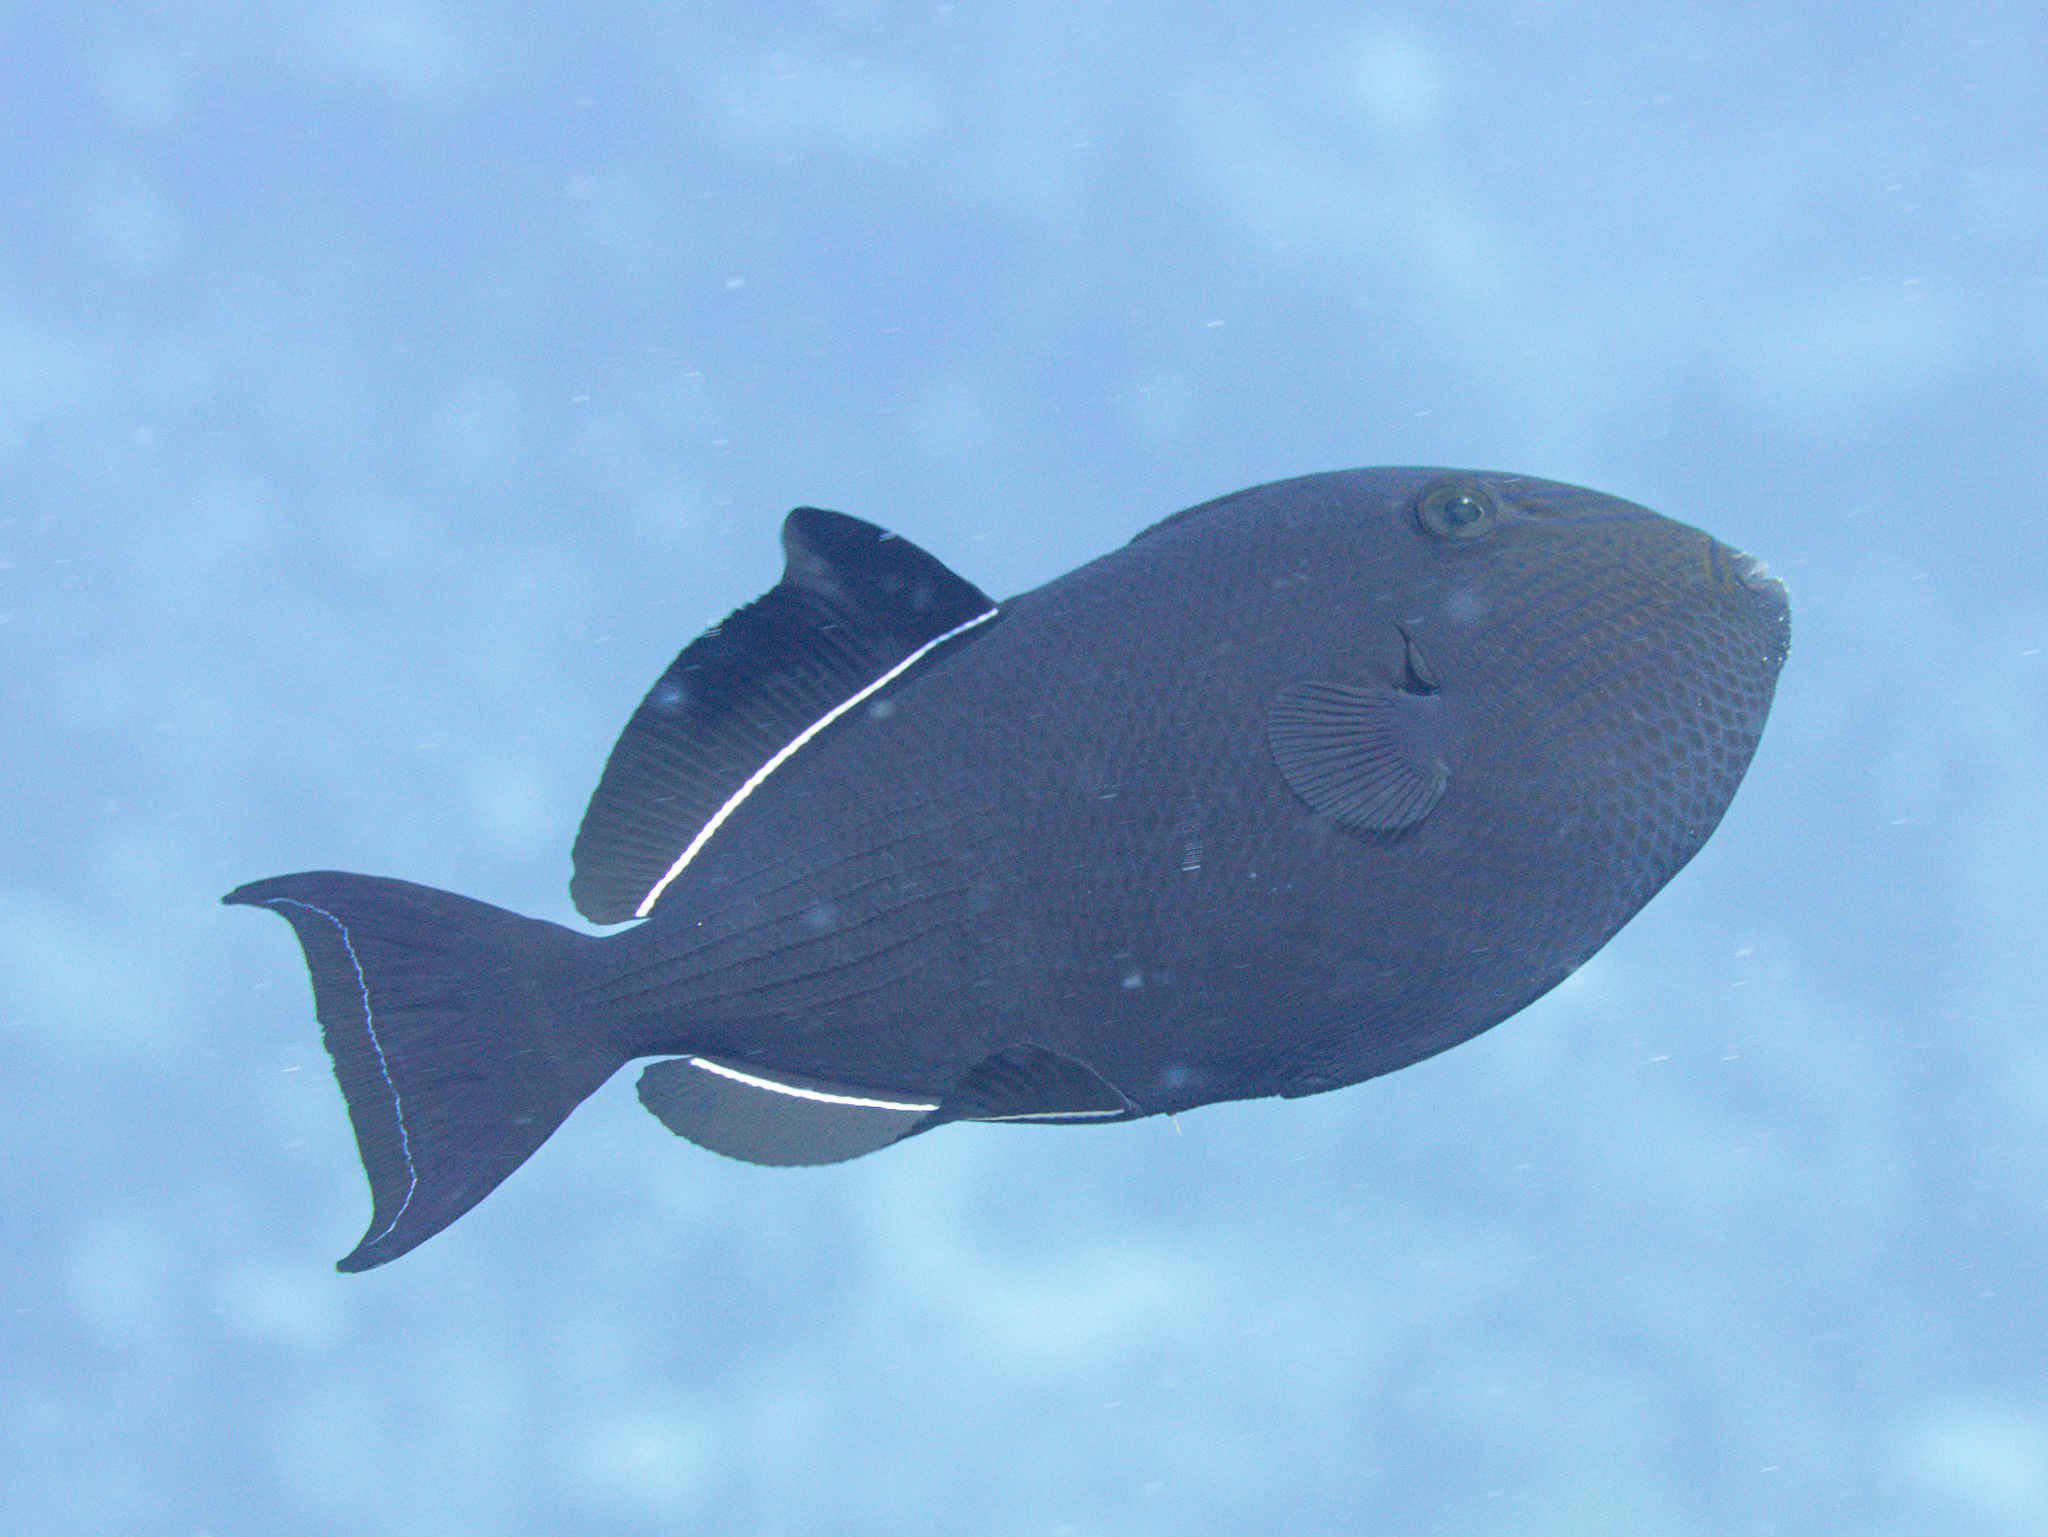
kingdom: Animalia
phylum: Chordata
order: Tetraodontiformes
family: Balistidae
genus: Melichthys
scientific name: Melichthys niger
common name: Black durgon
